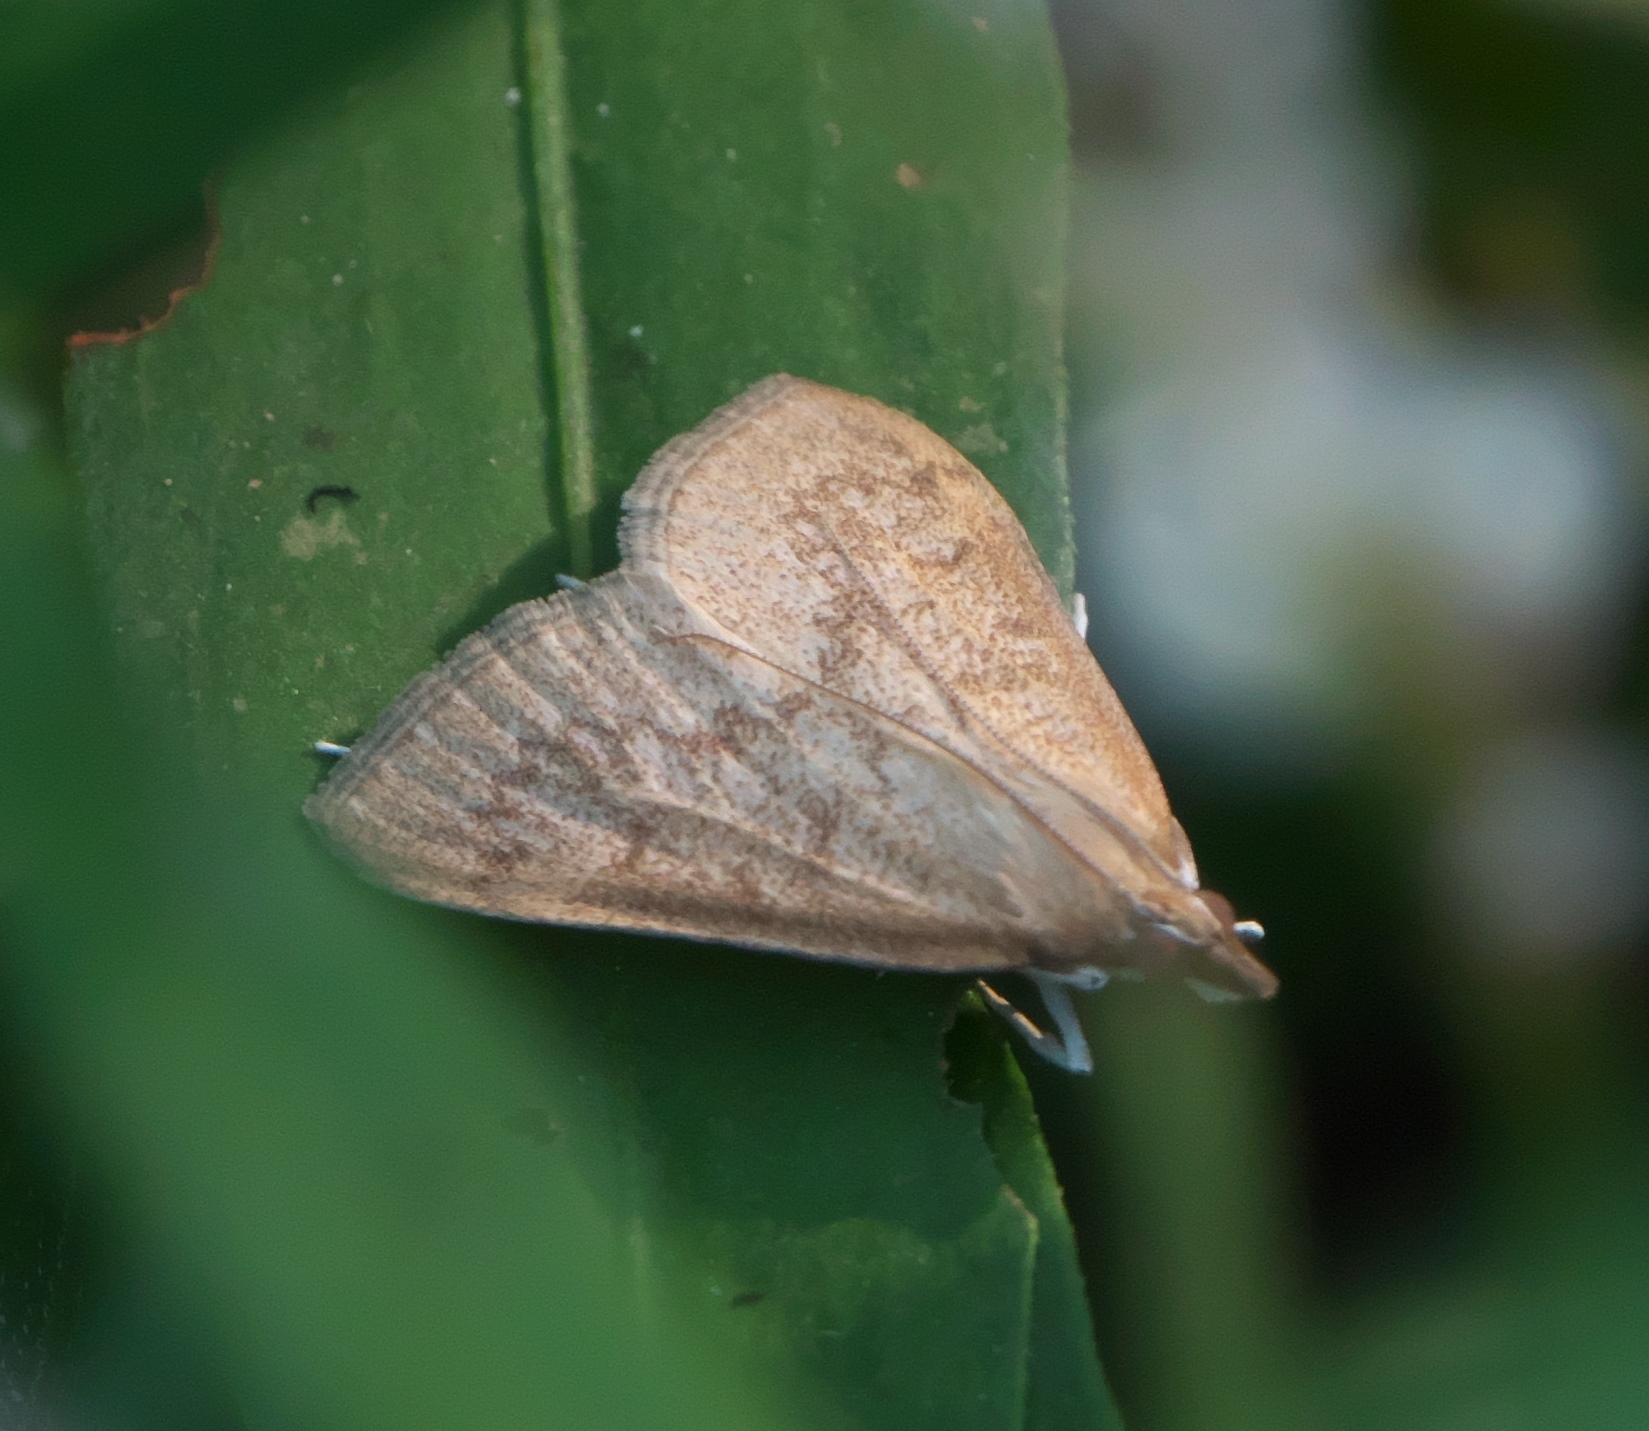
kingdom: Animalia
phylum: Arthropoda
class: Insecta
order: Lepidoptera
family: Crambidae
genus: Saucrobotys
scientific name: Saucrobotys futilalis
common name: Dogbane saucrobotys moth
